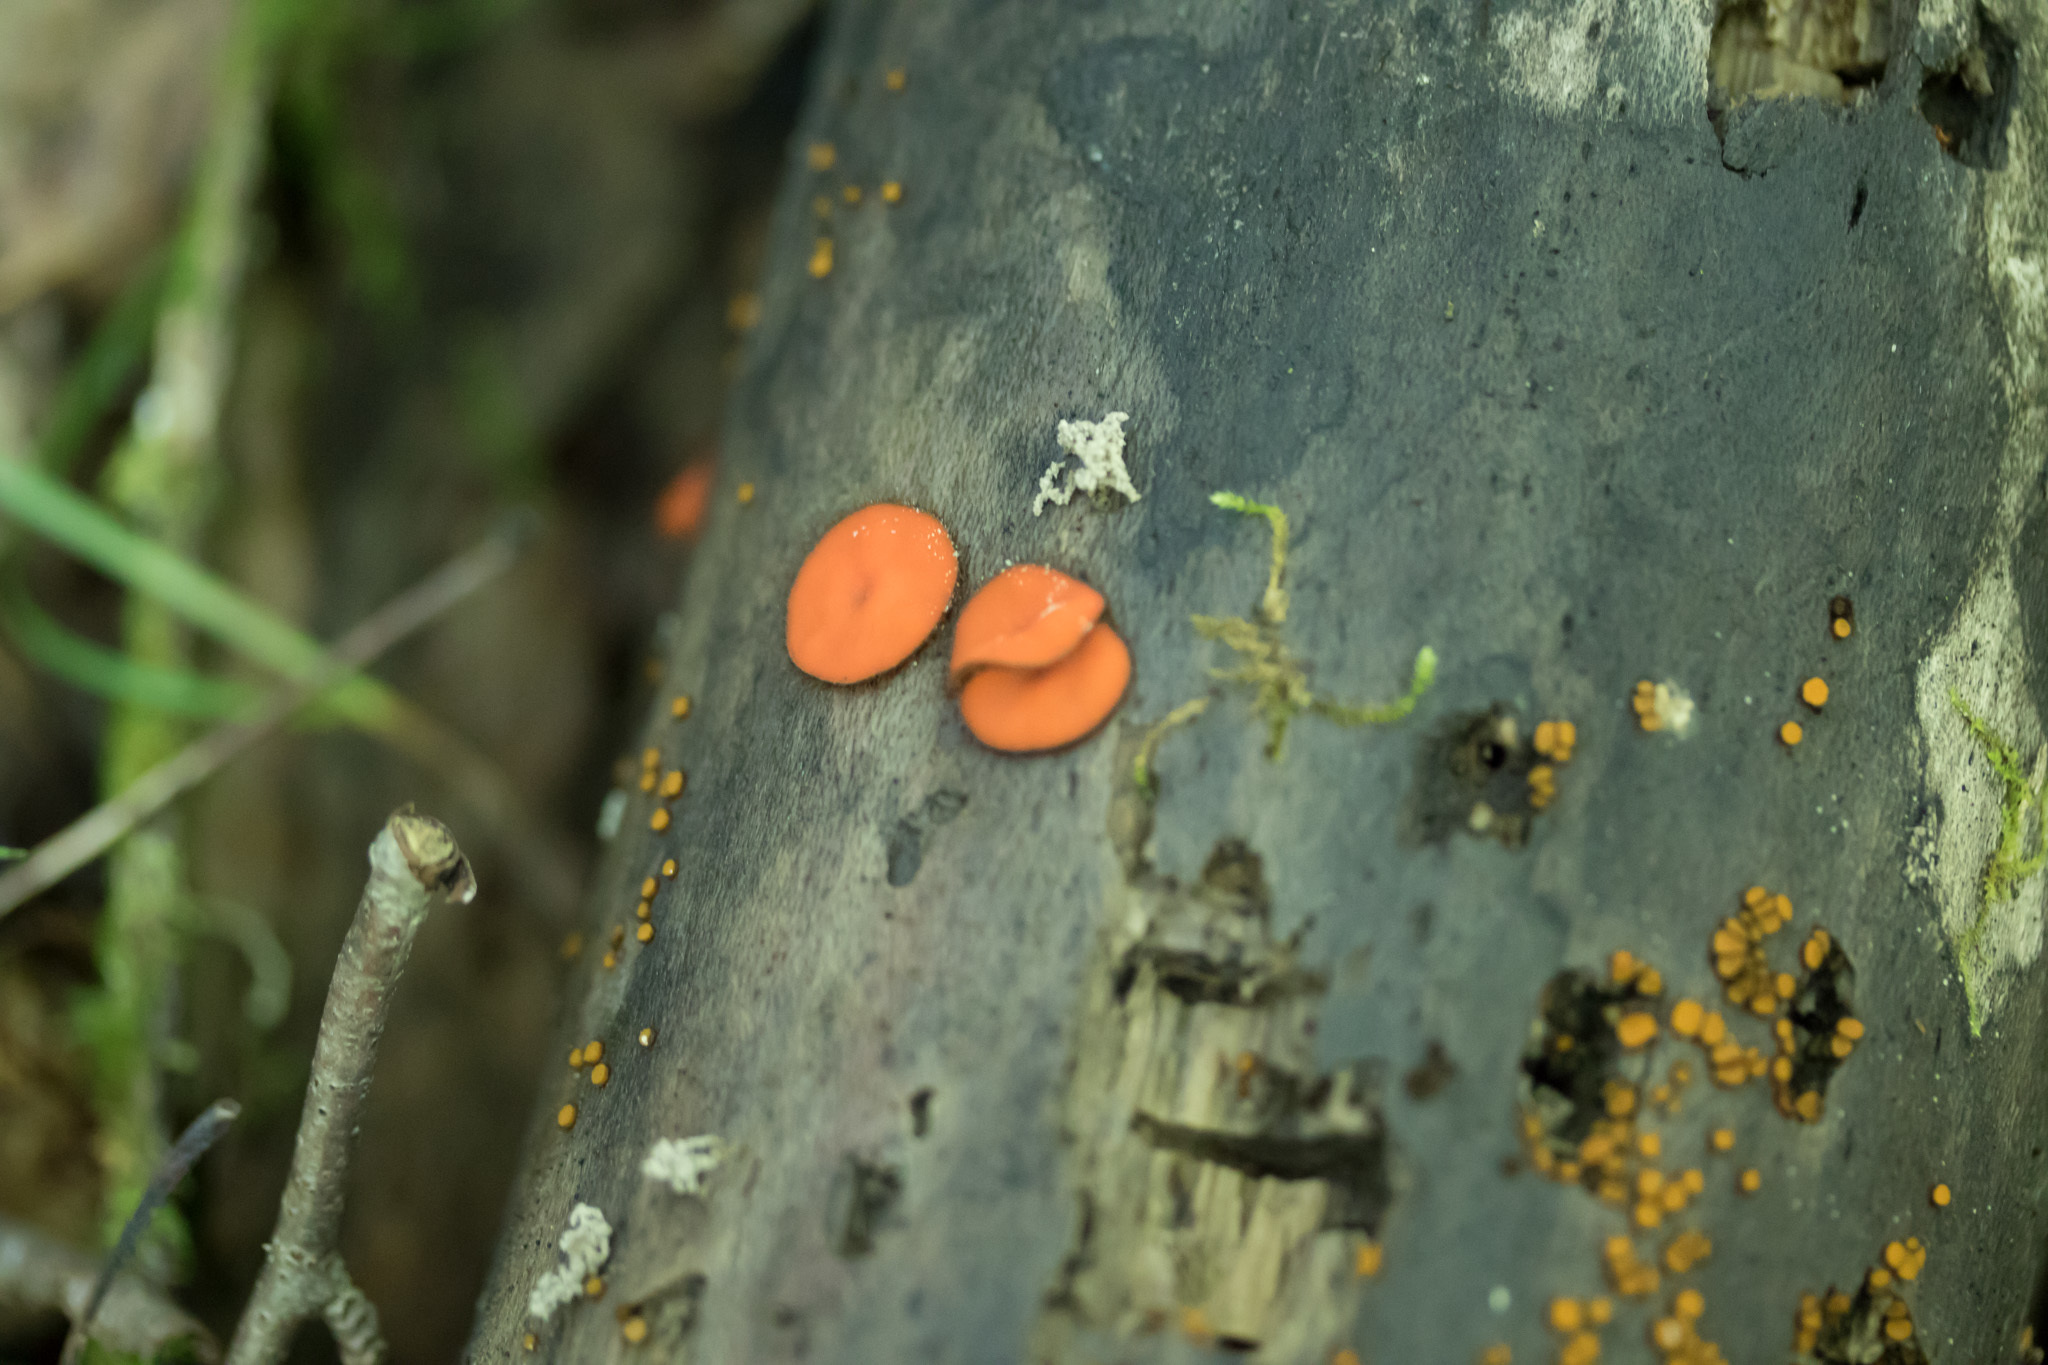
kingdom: Fungi
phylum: Ascomycota
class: Pezizomycetes
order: Pezizales
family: Pyronemataceae
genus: Scutellinia
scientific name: Scutellinia
